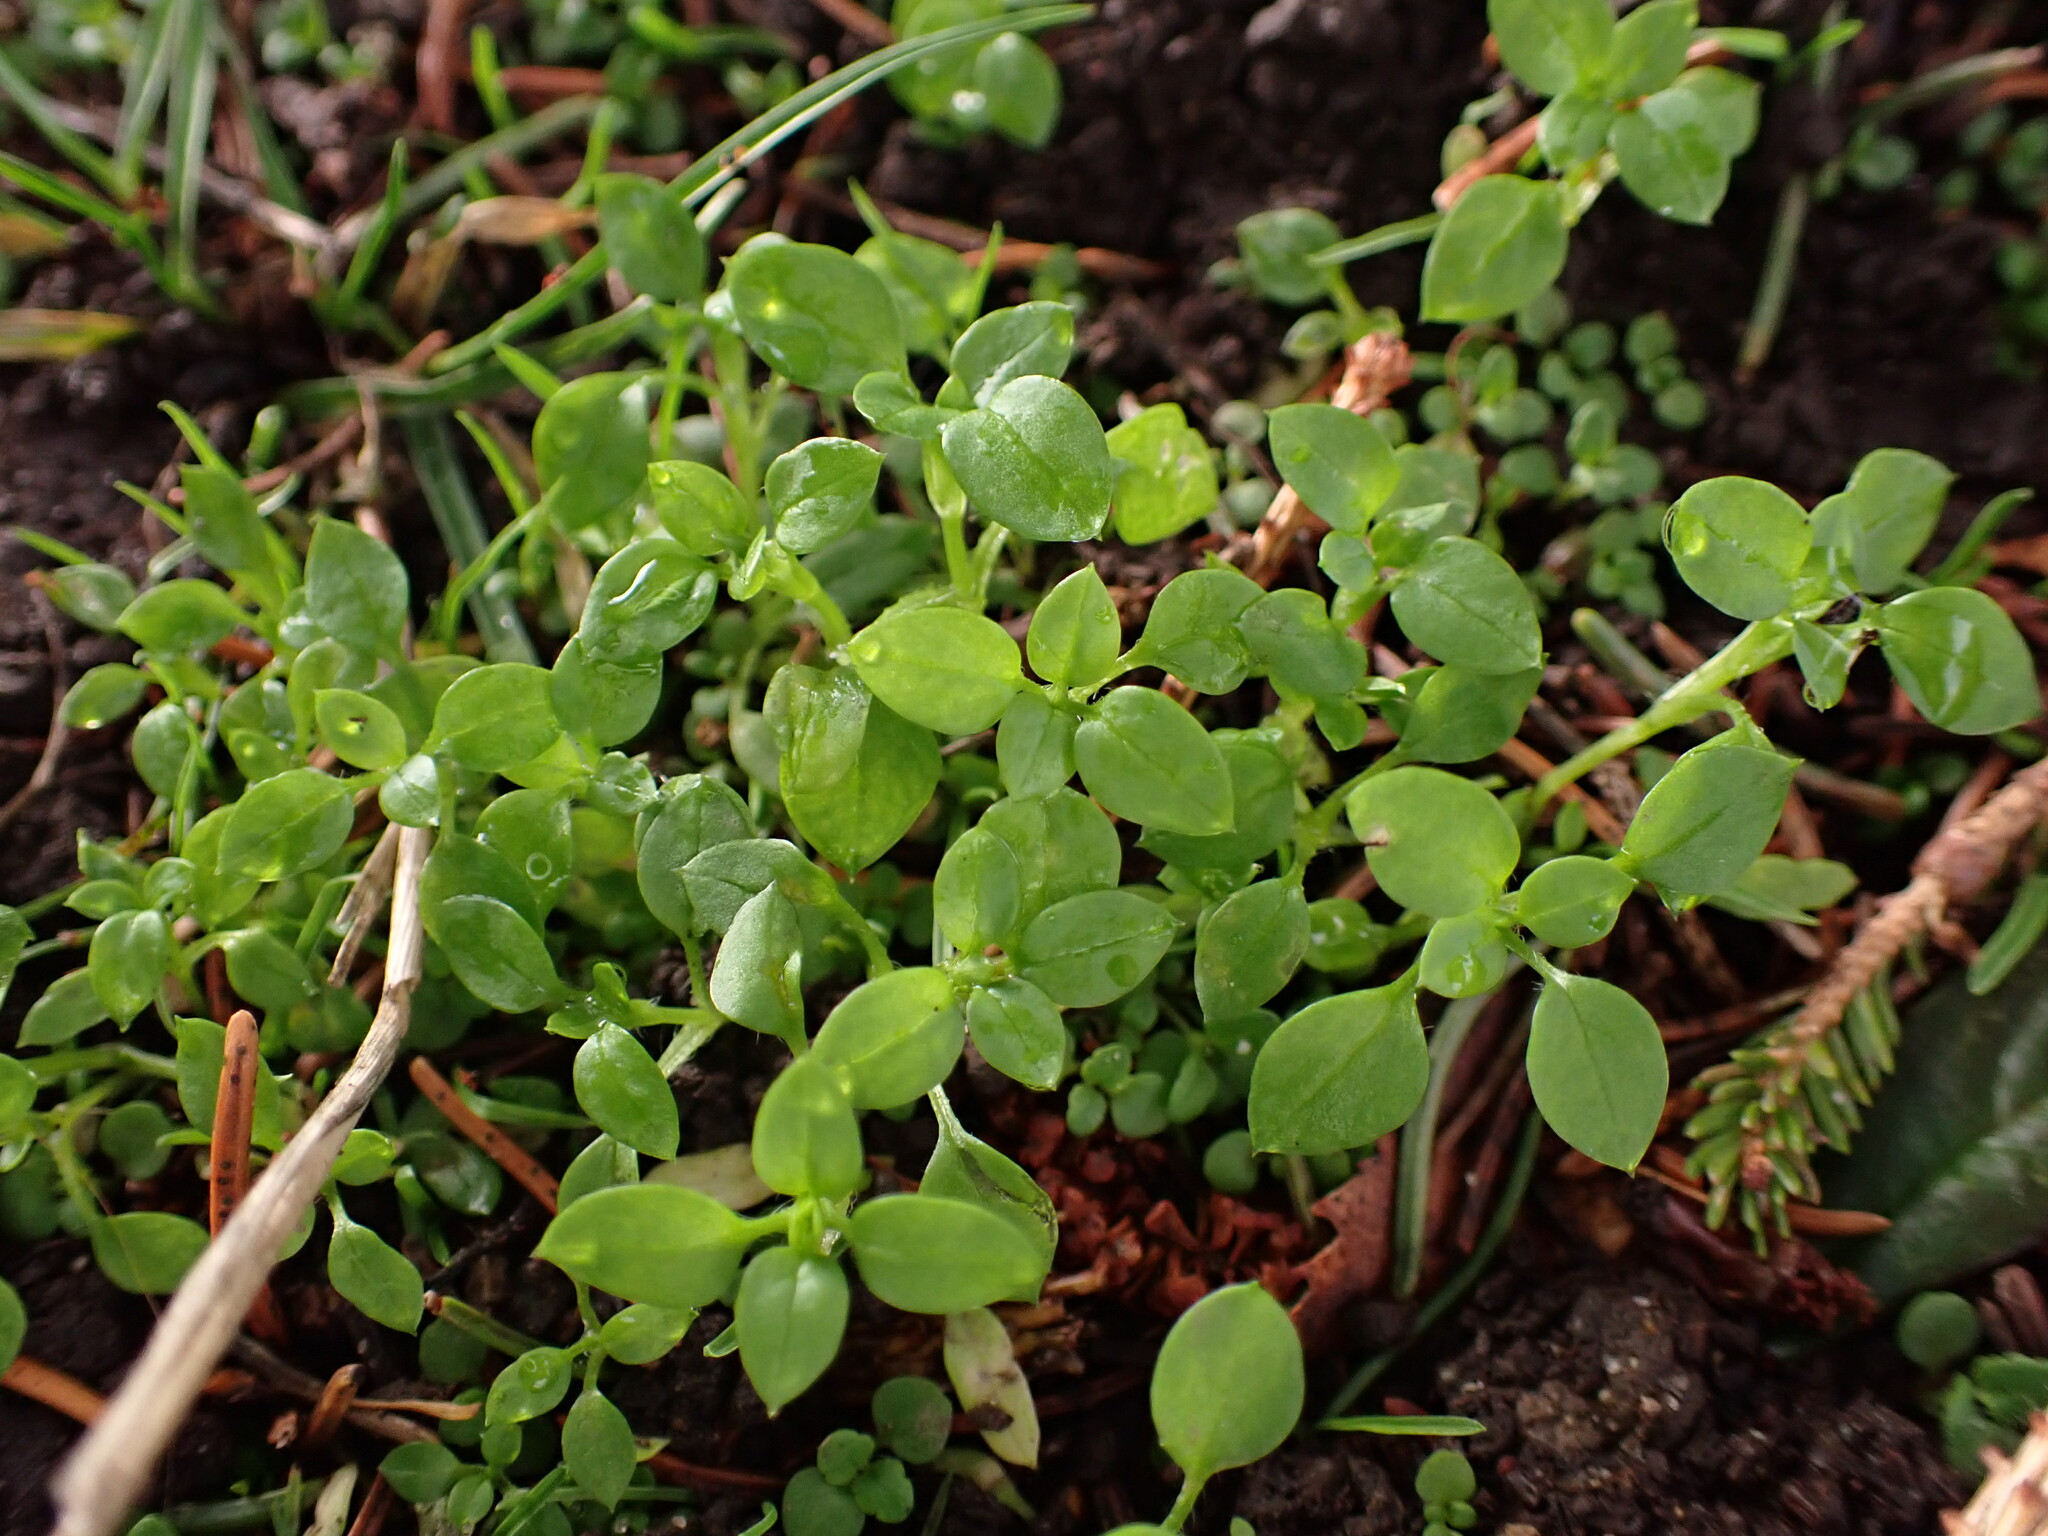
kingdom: Plantae
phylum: Tracheophyta
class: Magnoliopsida
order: Caryophyllales
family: Caryophyllaceae
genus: Stellaria
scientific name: Stellaria media
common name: Common chickweed
